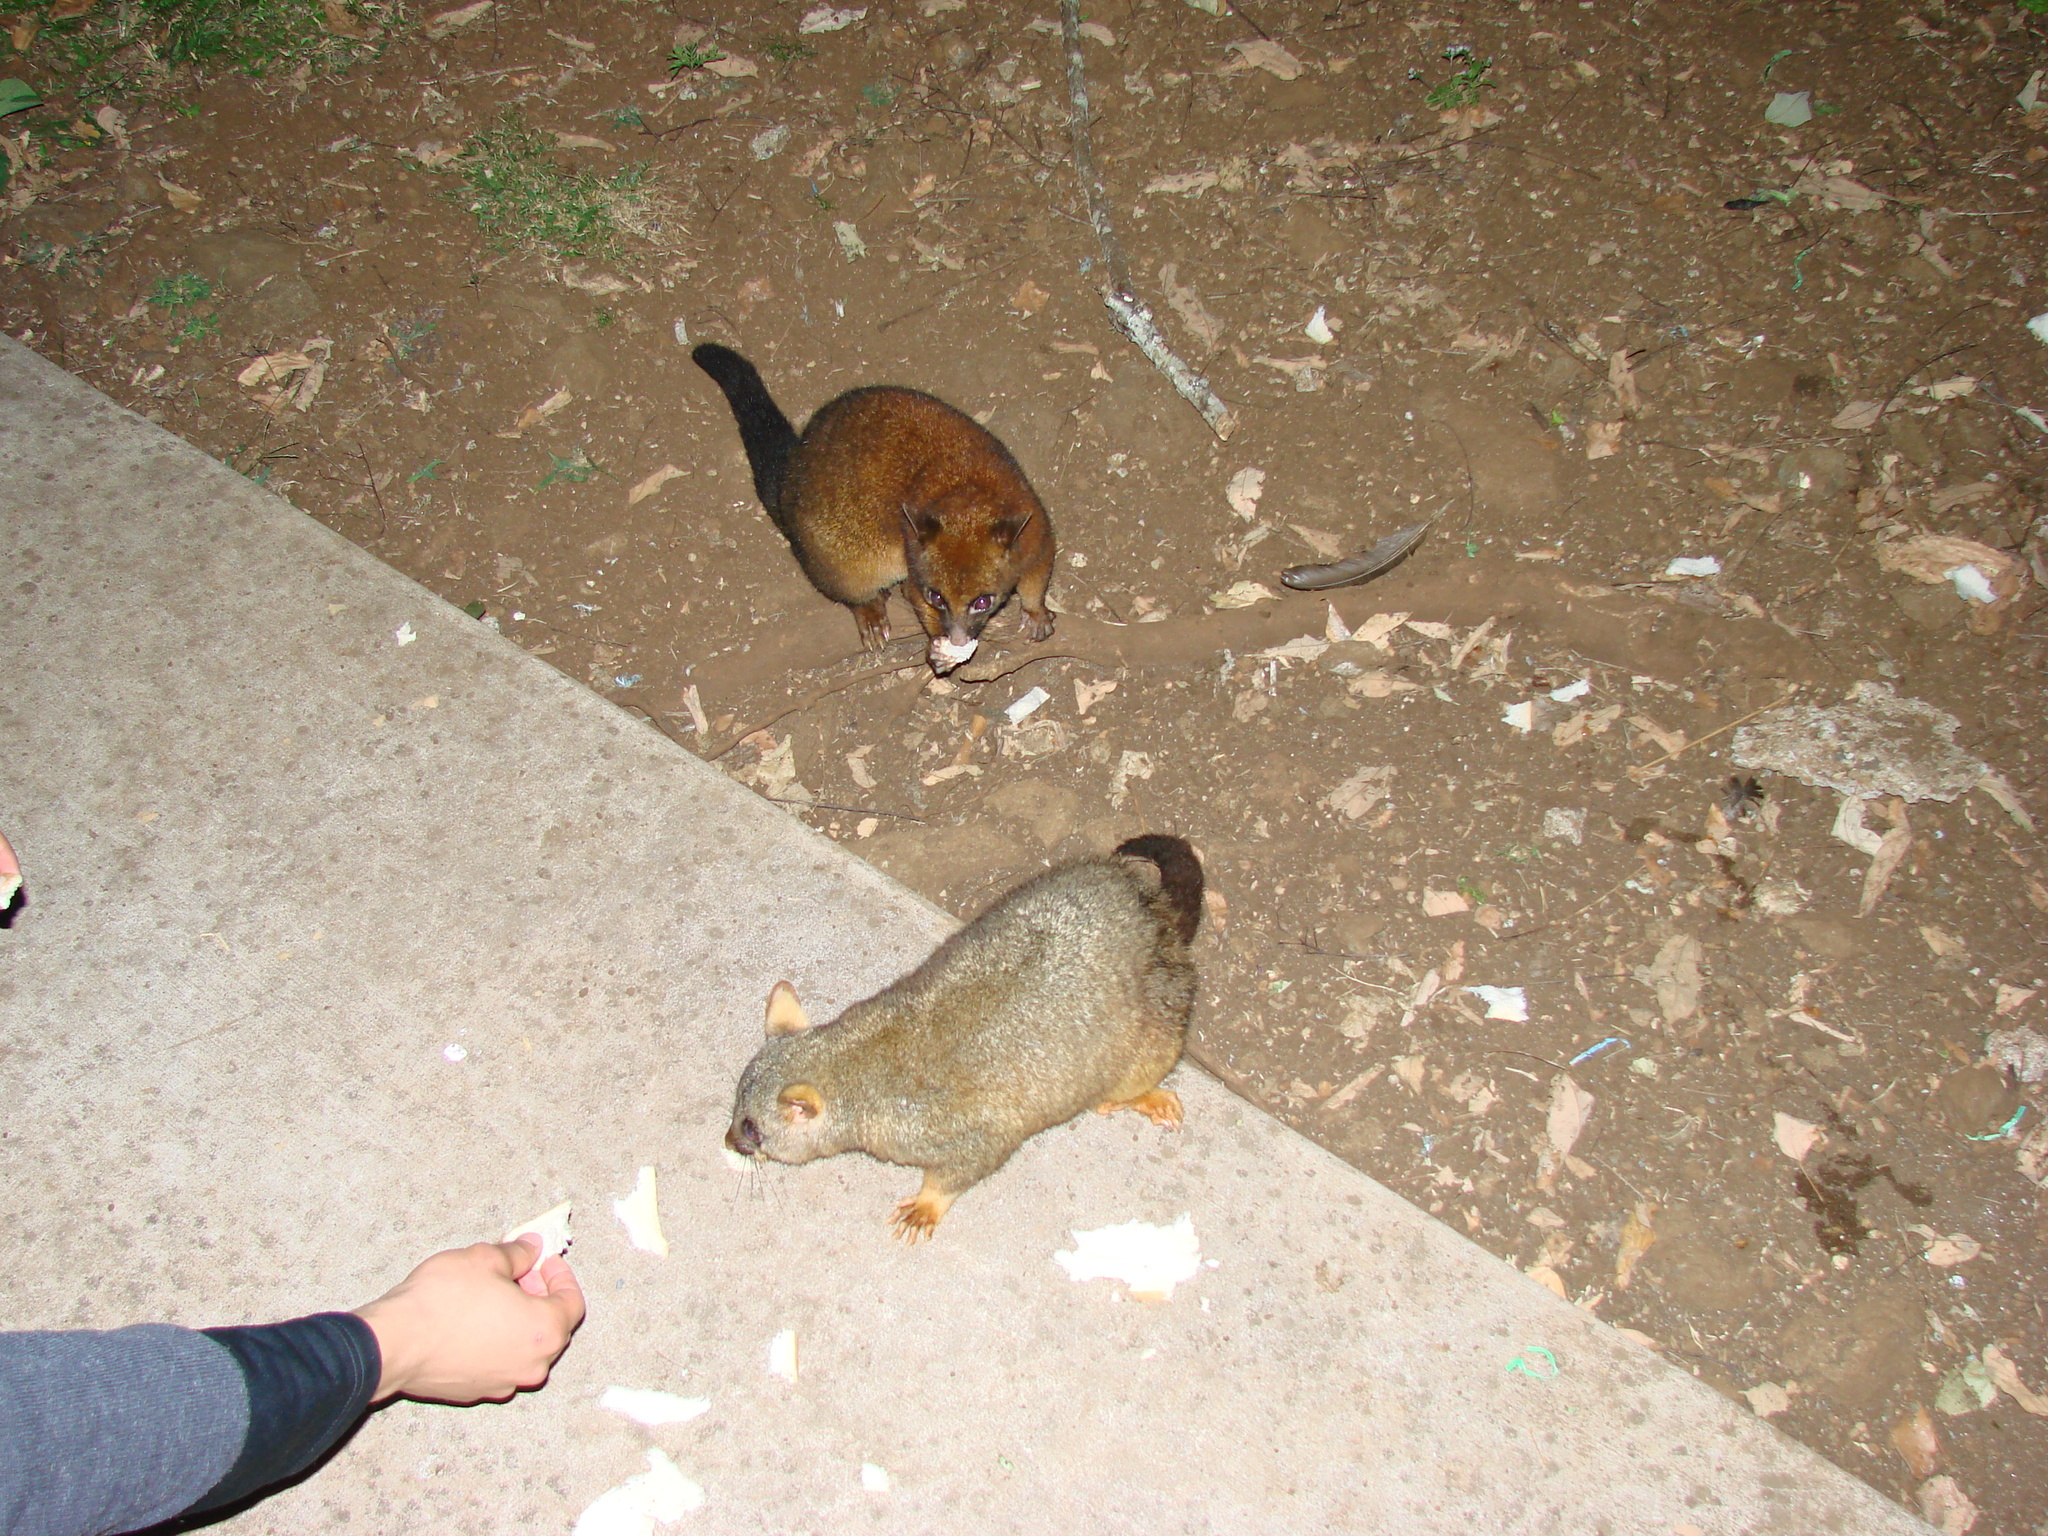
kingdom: Animalia
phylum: Chordata
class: Mammalia
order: Diprotodontia
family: Phalangeridae
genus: Trichosurus
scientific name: Trichosurus vulpecula
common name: Common brushtail
